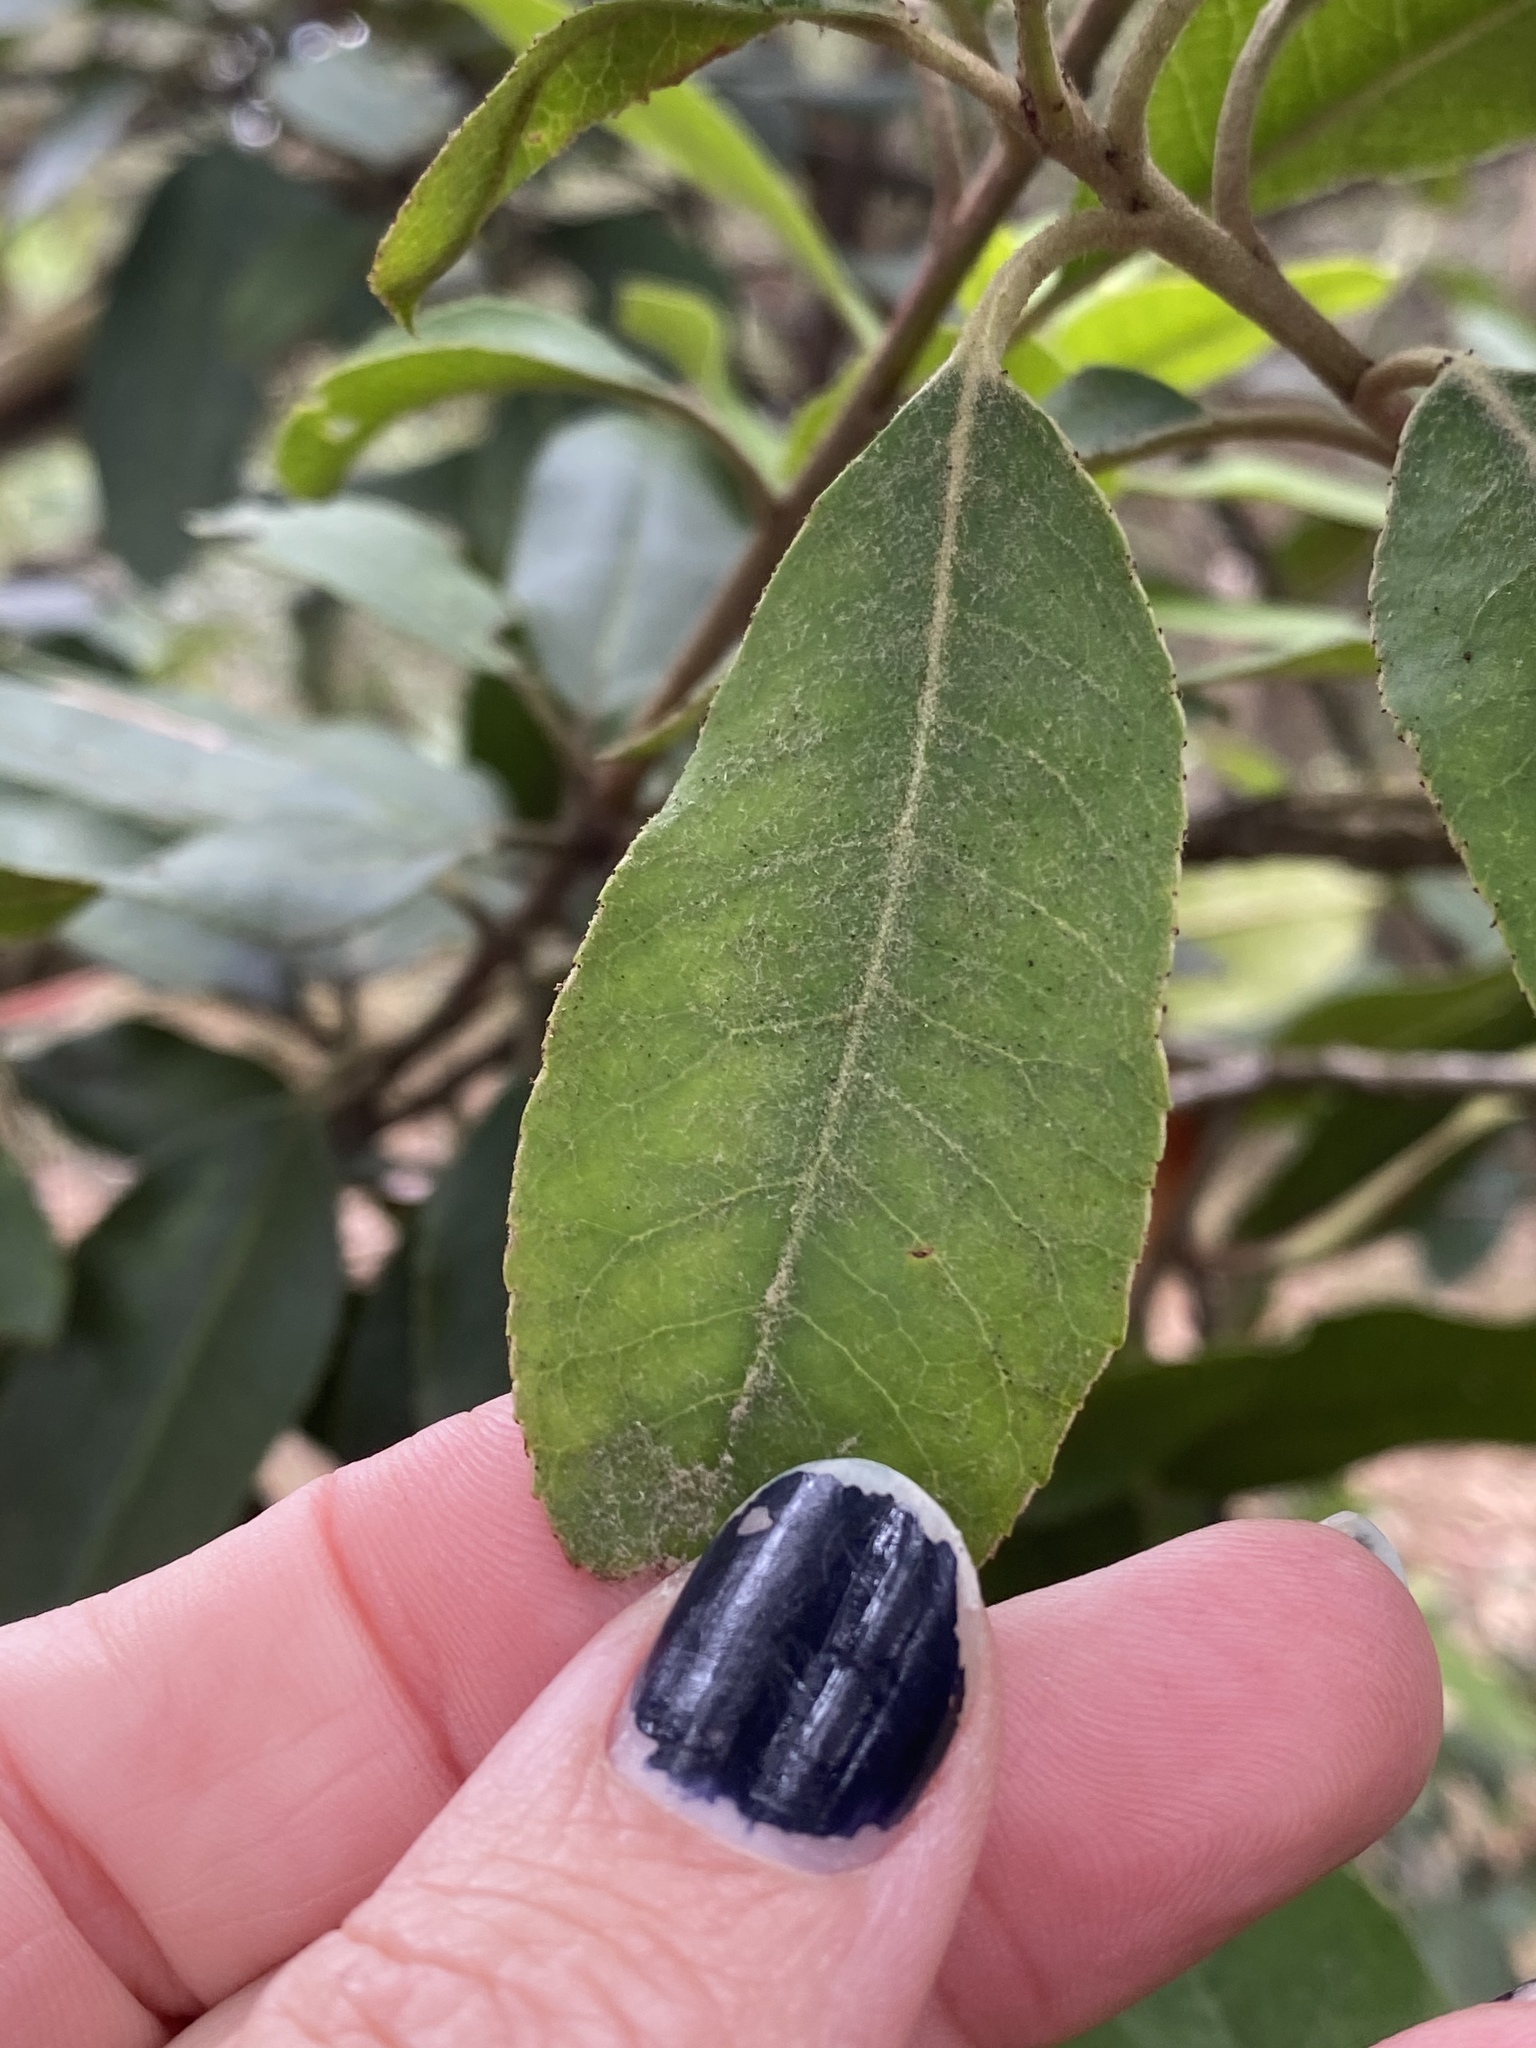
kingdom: Plantae
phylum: Tracheophyta
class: Magnoliopsida
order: Rosales
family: Rosaceae
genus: Heteromeles
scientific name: Heteromeles arbutifolia
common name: California-holly
